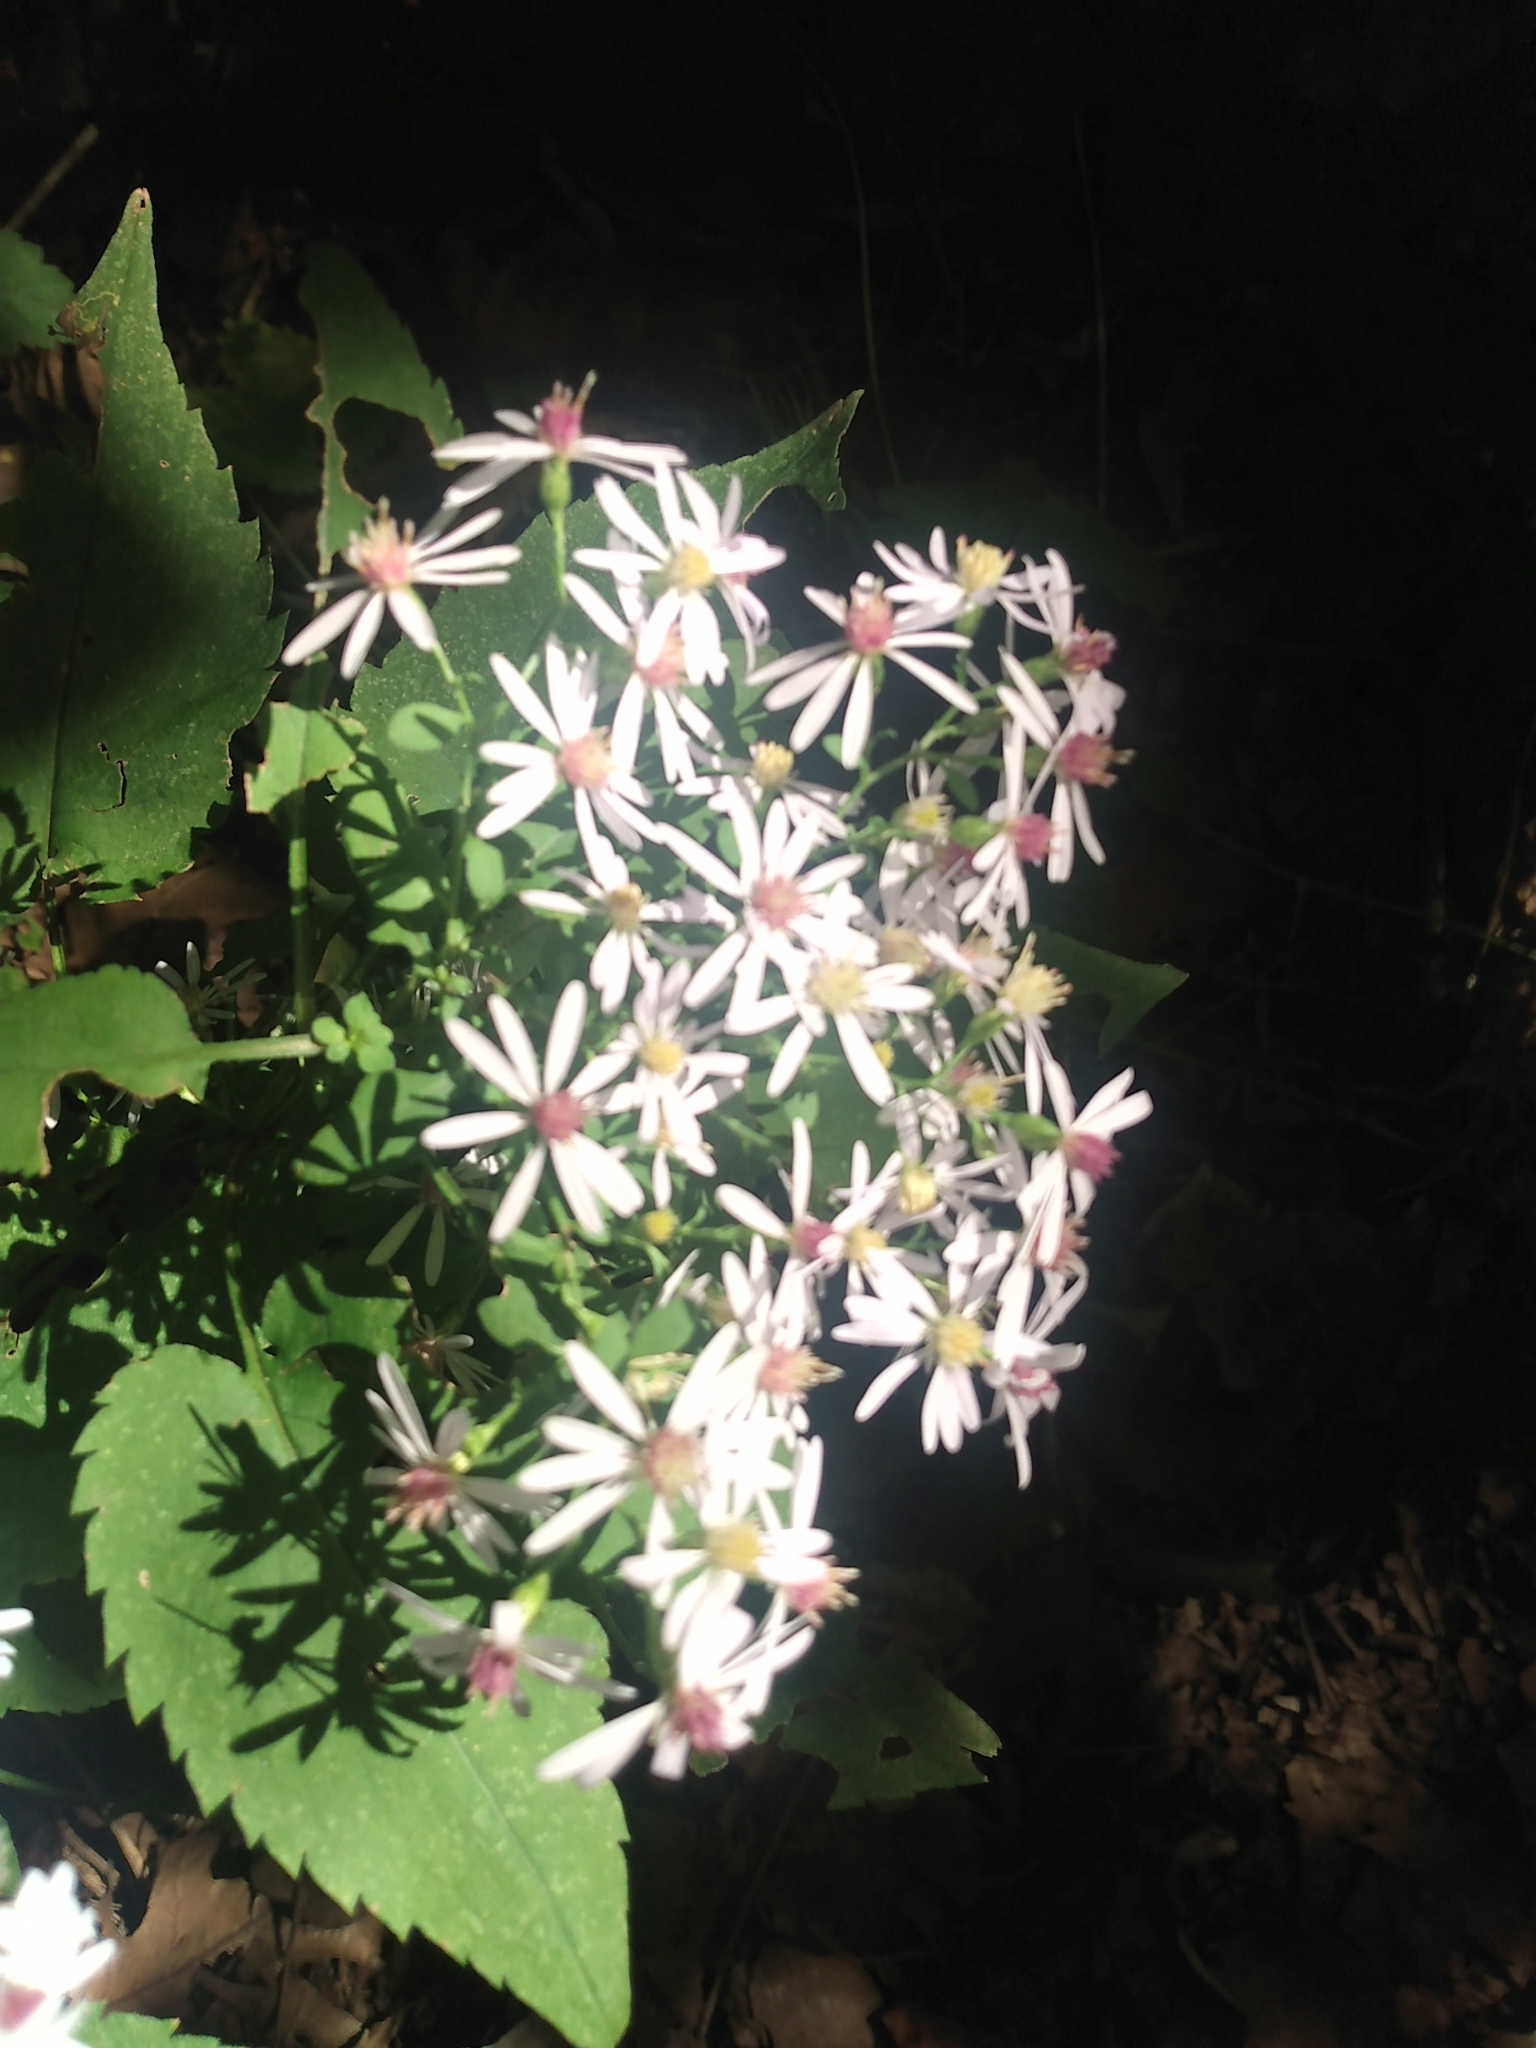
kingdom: Plantae
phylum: Tracheophyta
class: Magnoliopsida
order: Asterales
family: Asteraceae
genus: Symphyotrichum
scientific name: Symphyotrichum cordifolium
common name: Beeweed
